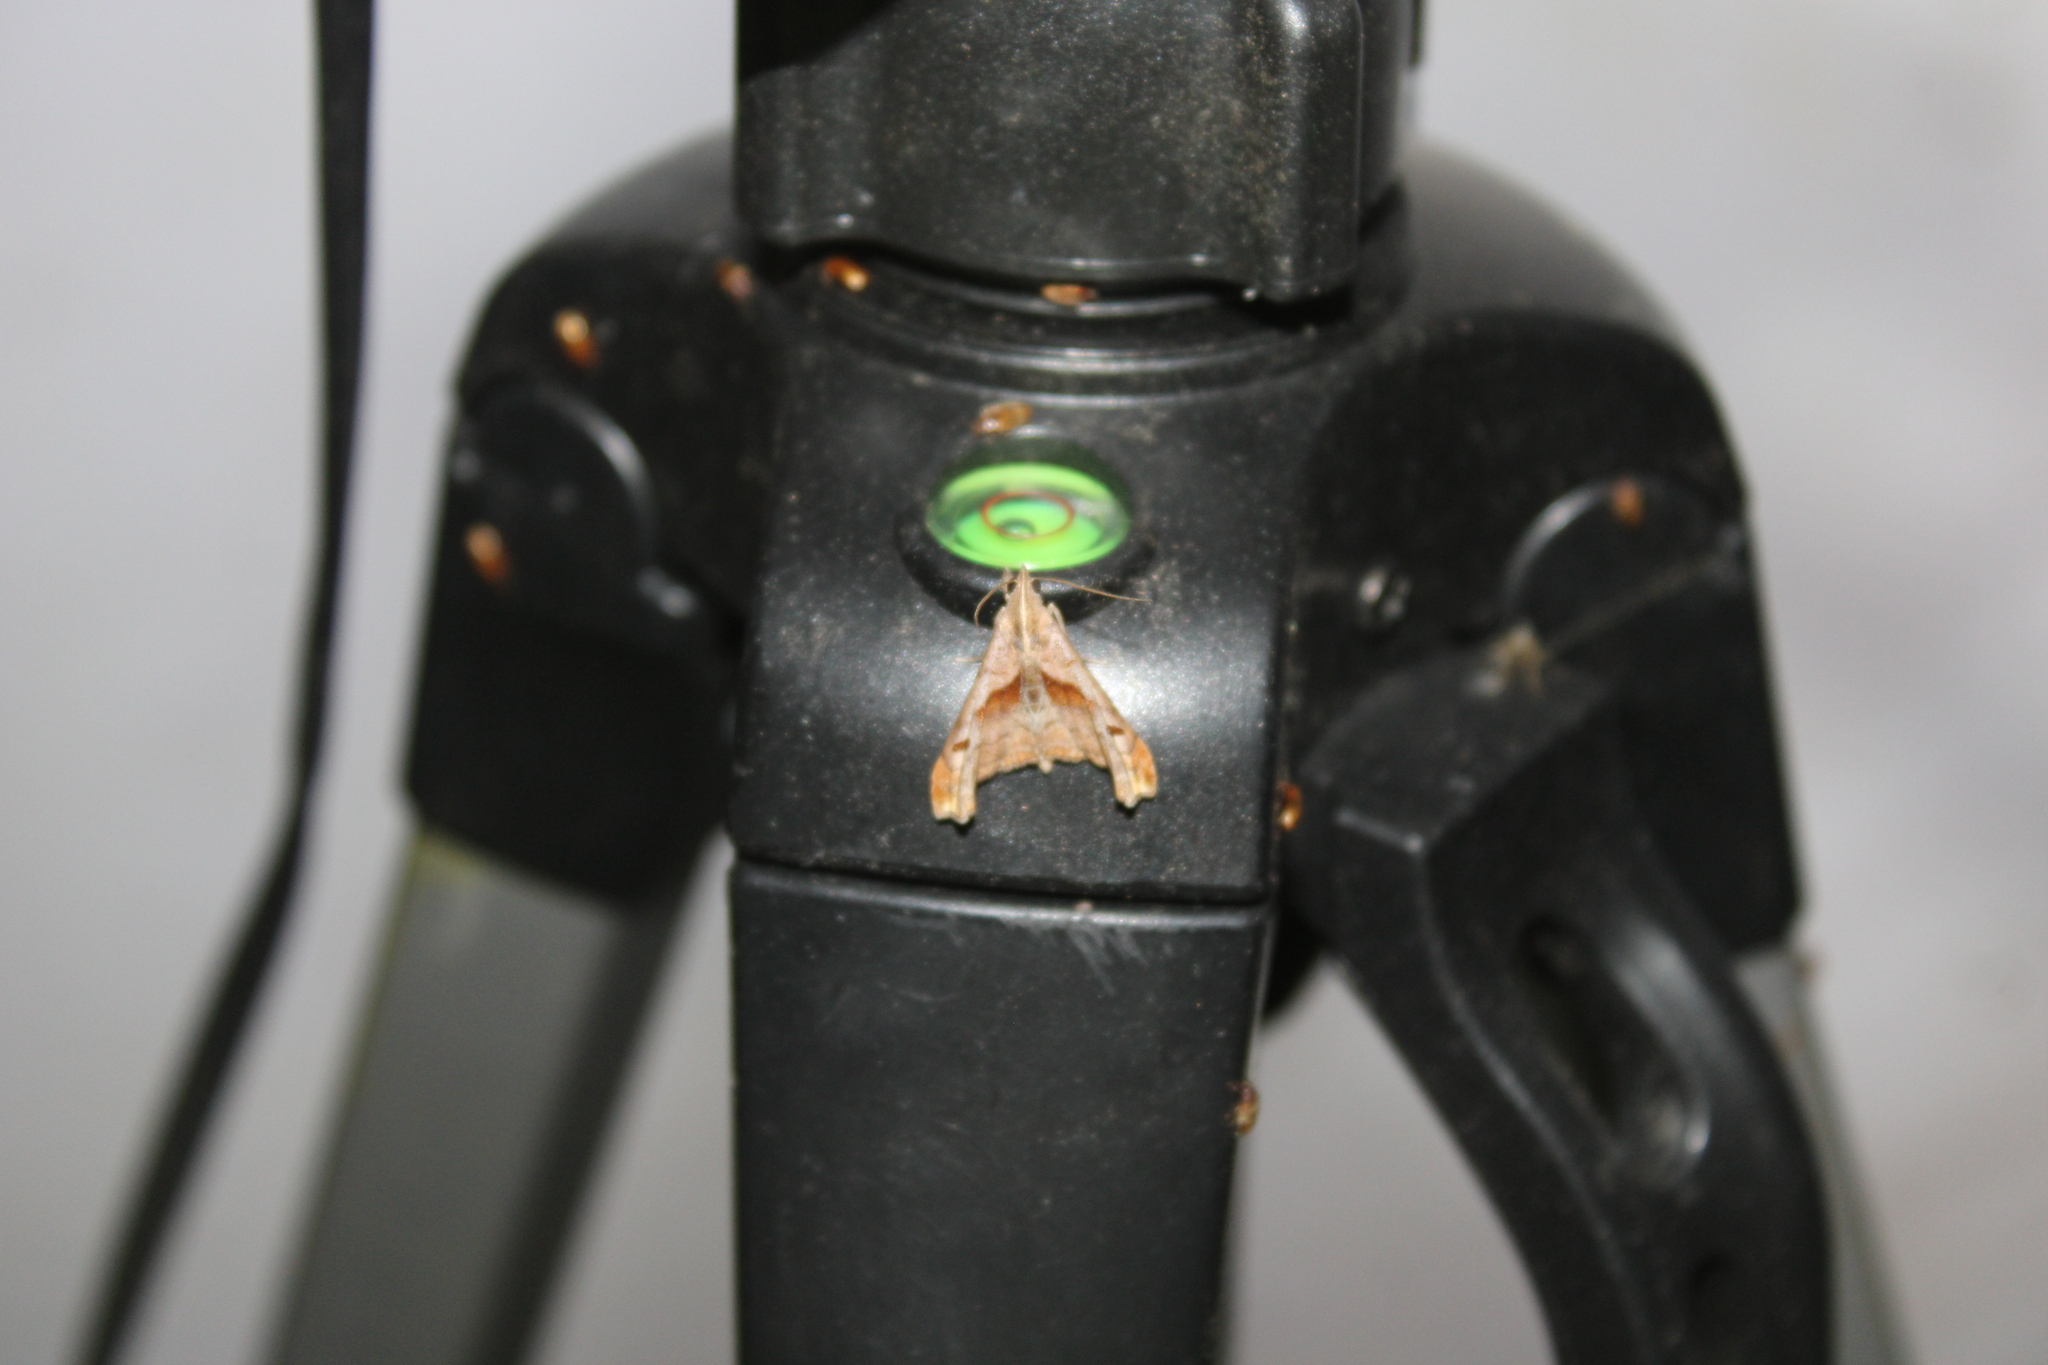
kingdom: Animalia
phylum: Arthropoda
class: Insecta
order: Lepidoptera
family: Erebidae
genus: Palthis
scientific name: Palthis angulalis
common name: Dark-spotted palthis moth
